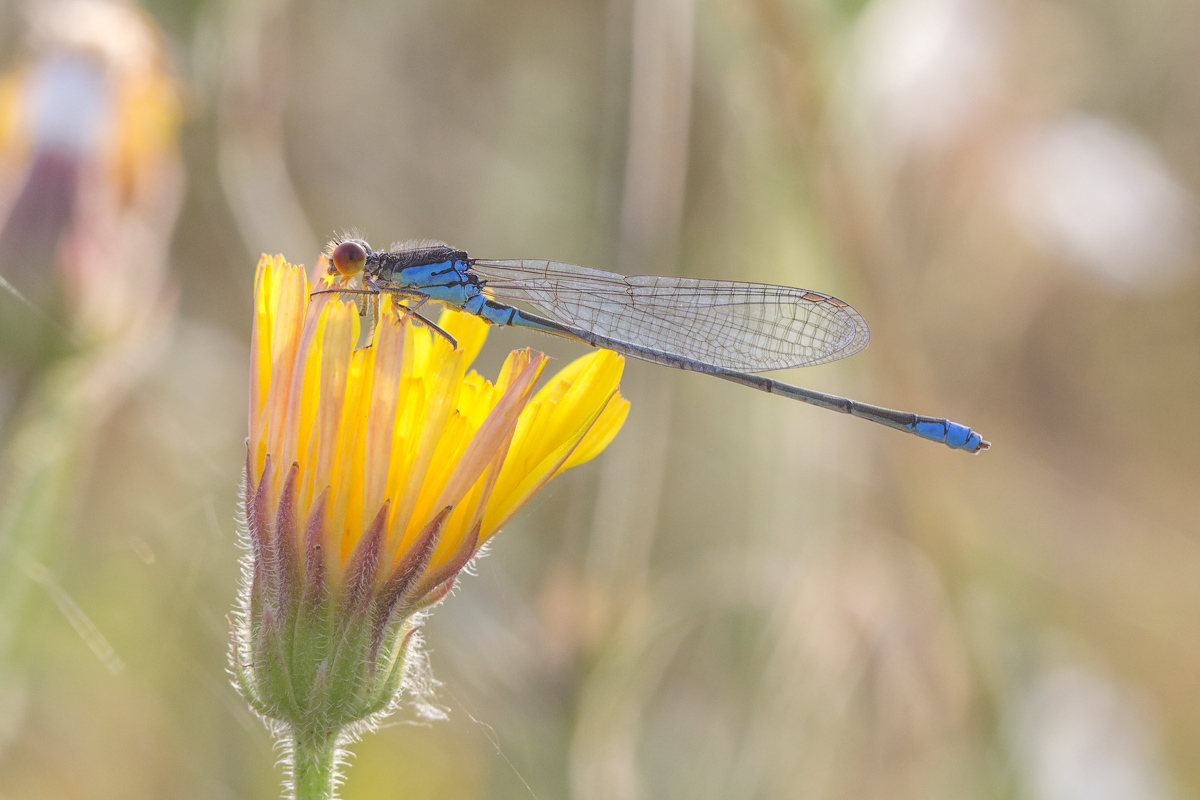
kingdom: Animalia
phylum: Arthropoda
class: Insecta
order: Odonata
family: Coenagrionidae
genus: Erythromma
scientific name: Erythromma viridulum
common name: Small red-eyed damselfly
